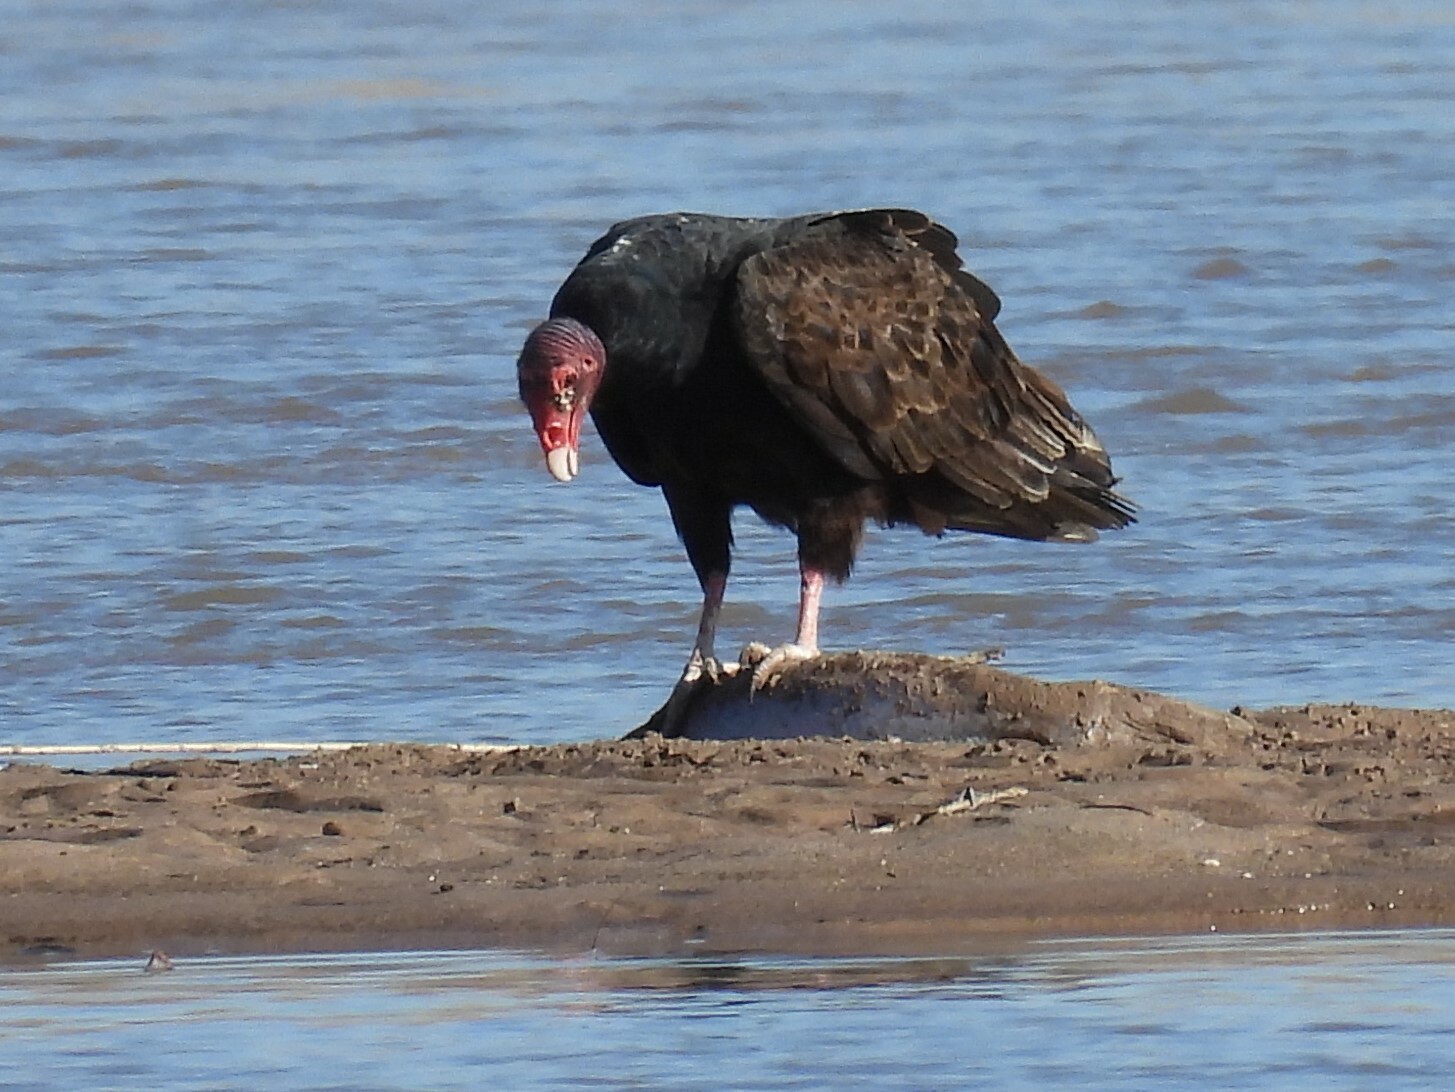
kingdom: Animalia
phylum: Chordata
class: Aves
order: Accipitriformes
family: Cathartidae
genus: Cathartes
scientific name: Cathartes aura
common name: Turkey vulture
